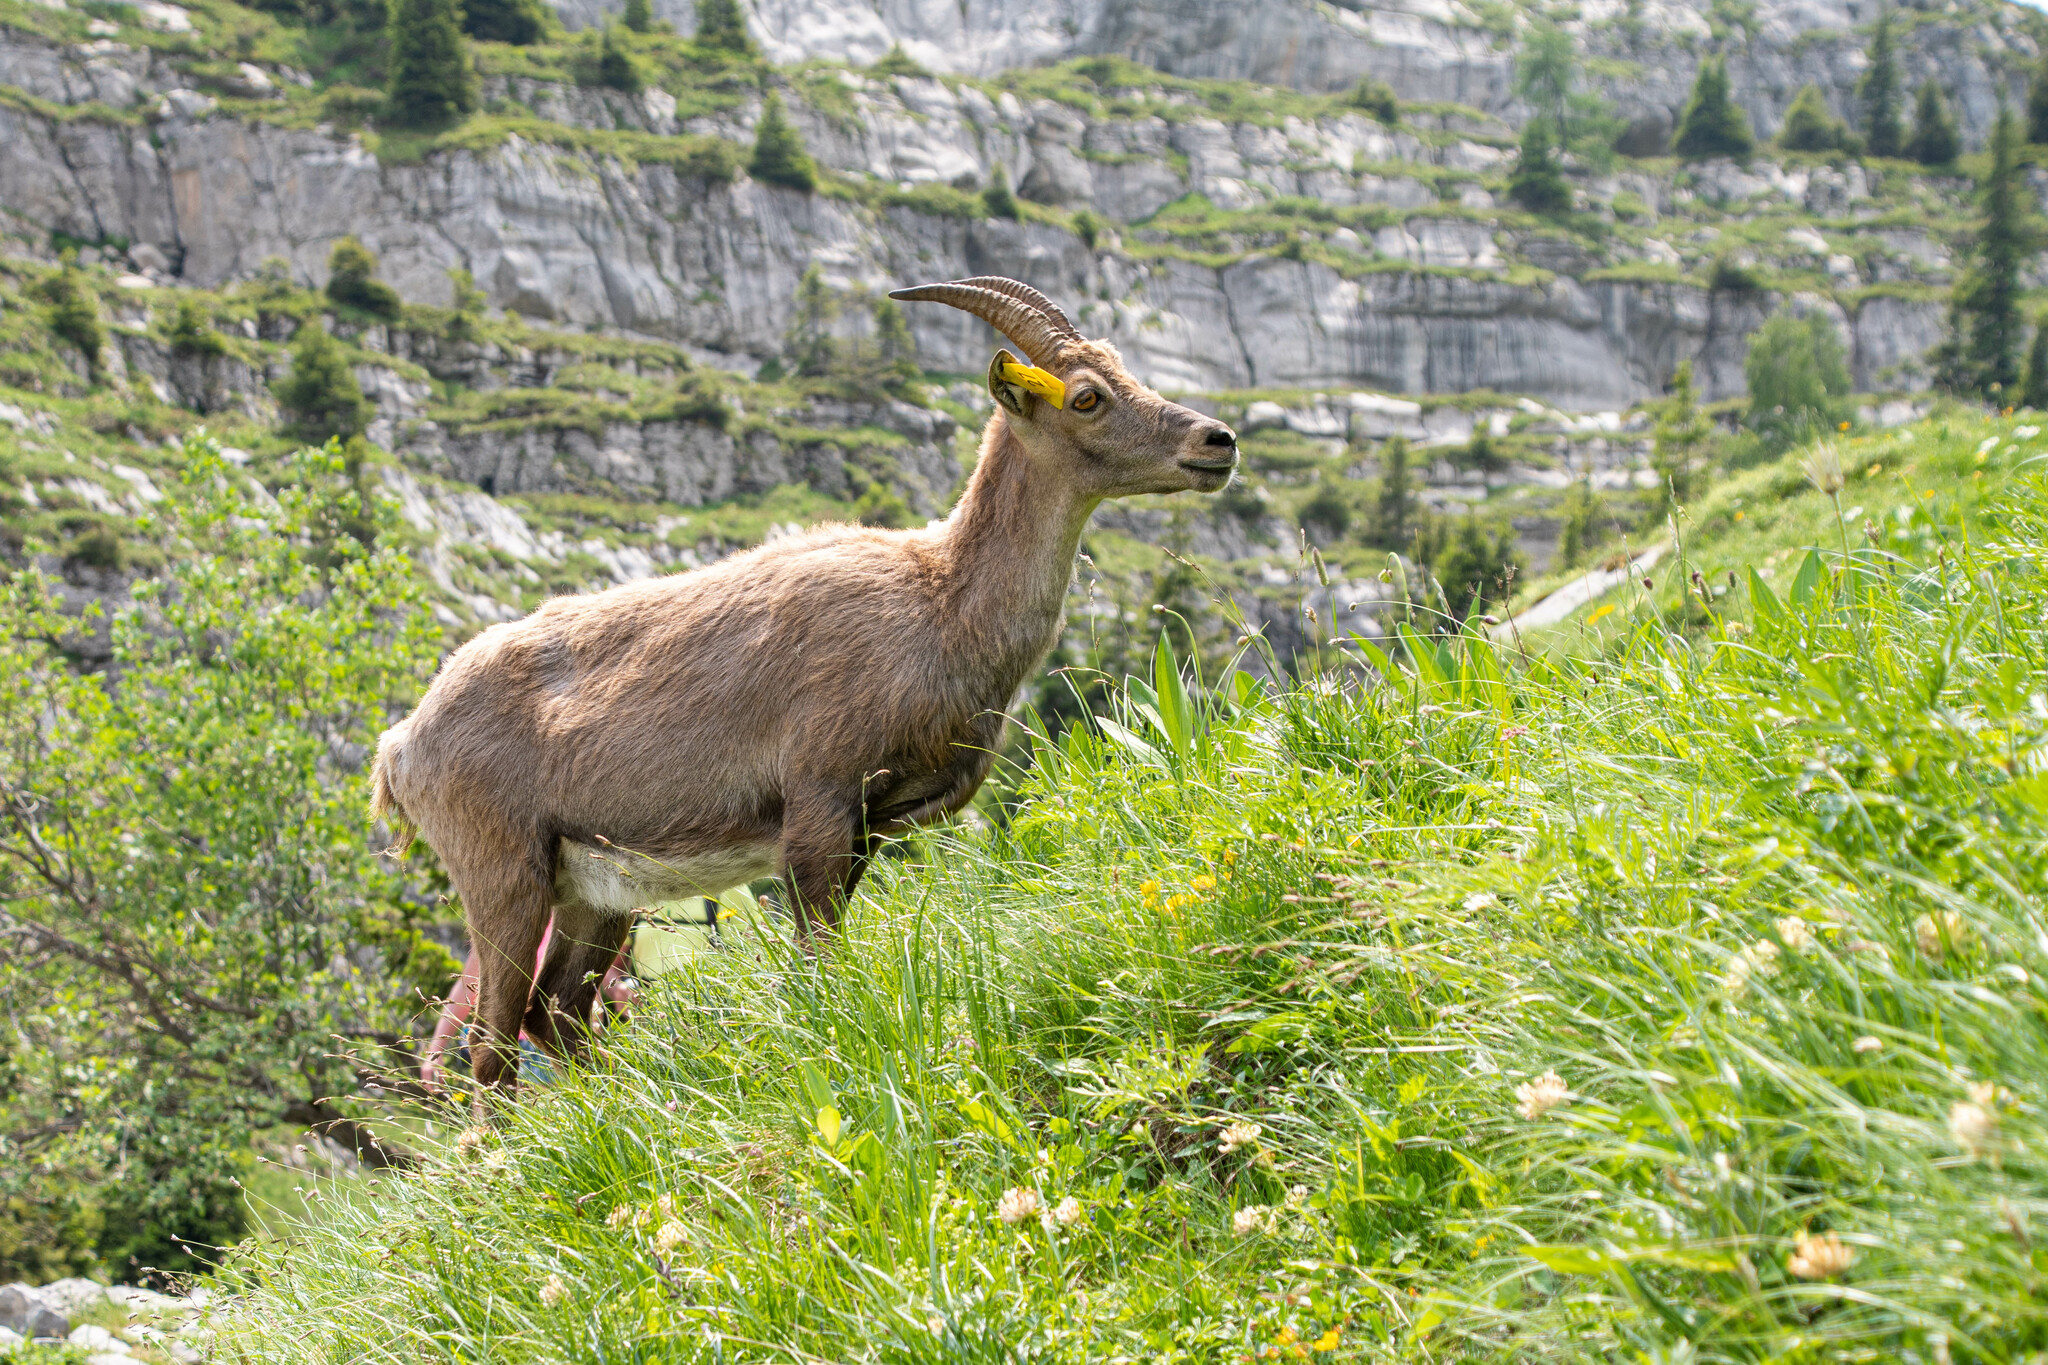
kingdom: Animalia
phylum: Chordata
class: Mammalia
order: Artiodactyla
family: Bovidae
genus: Capra
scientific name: Capra ibex
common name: Alpine ibex
